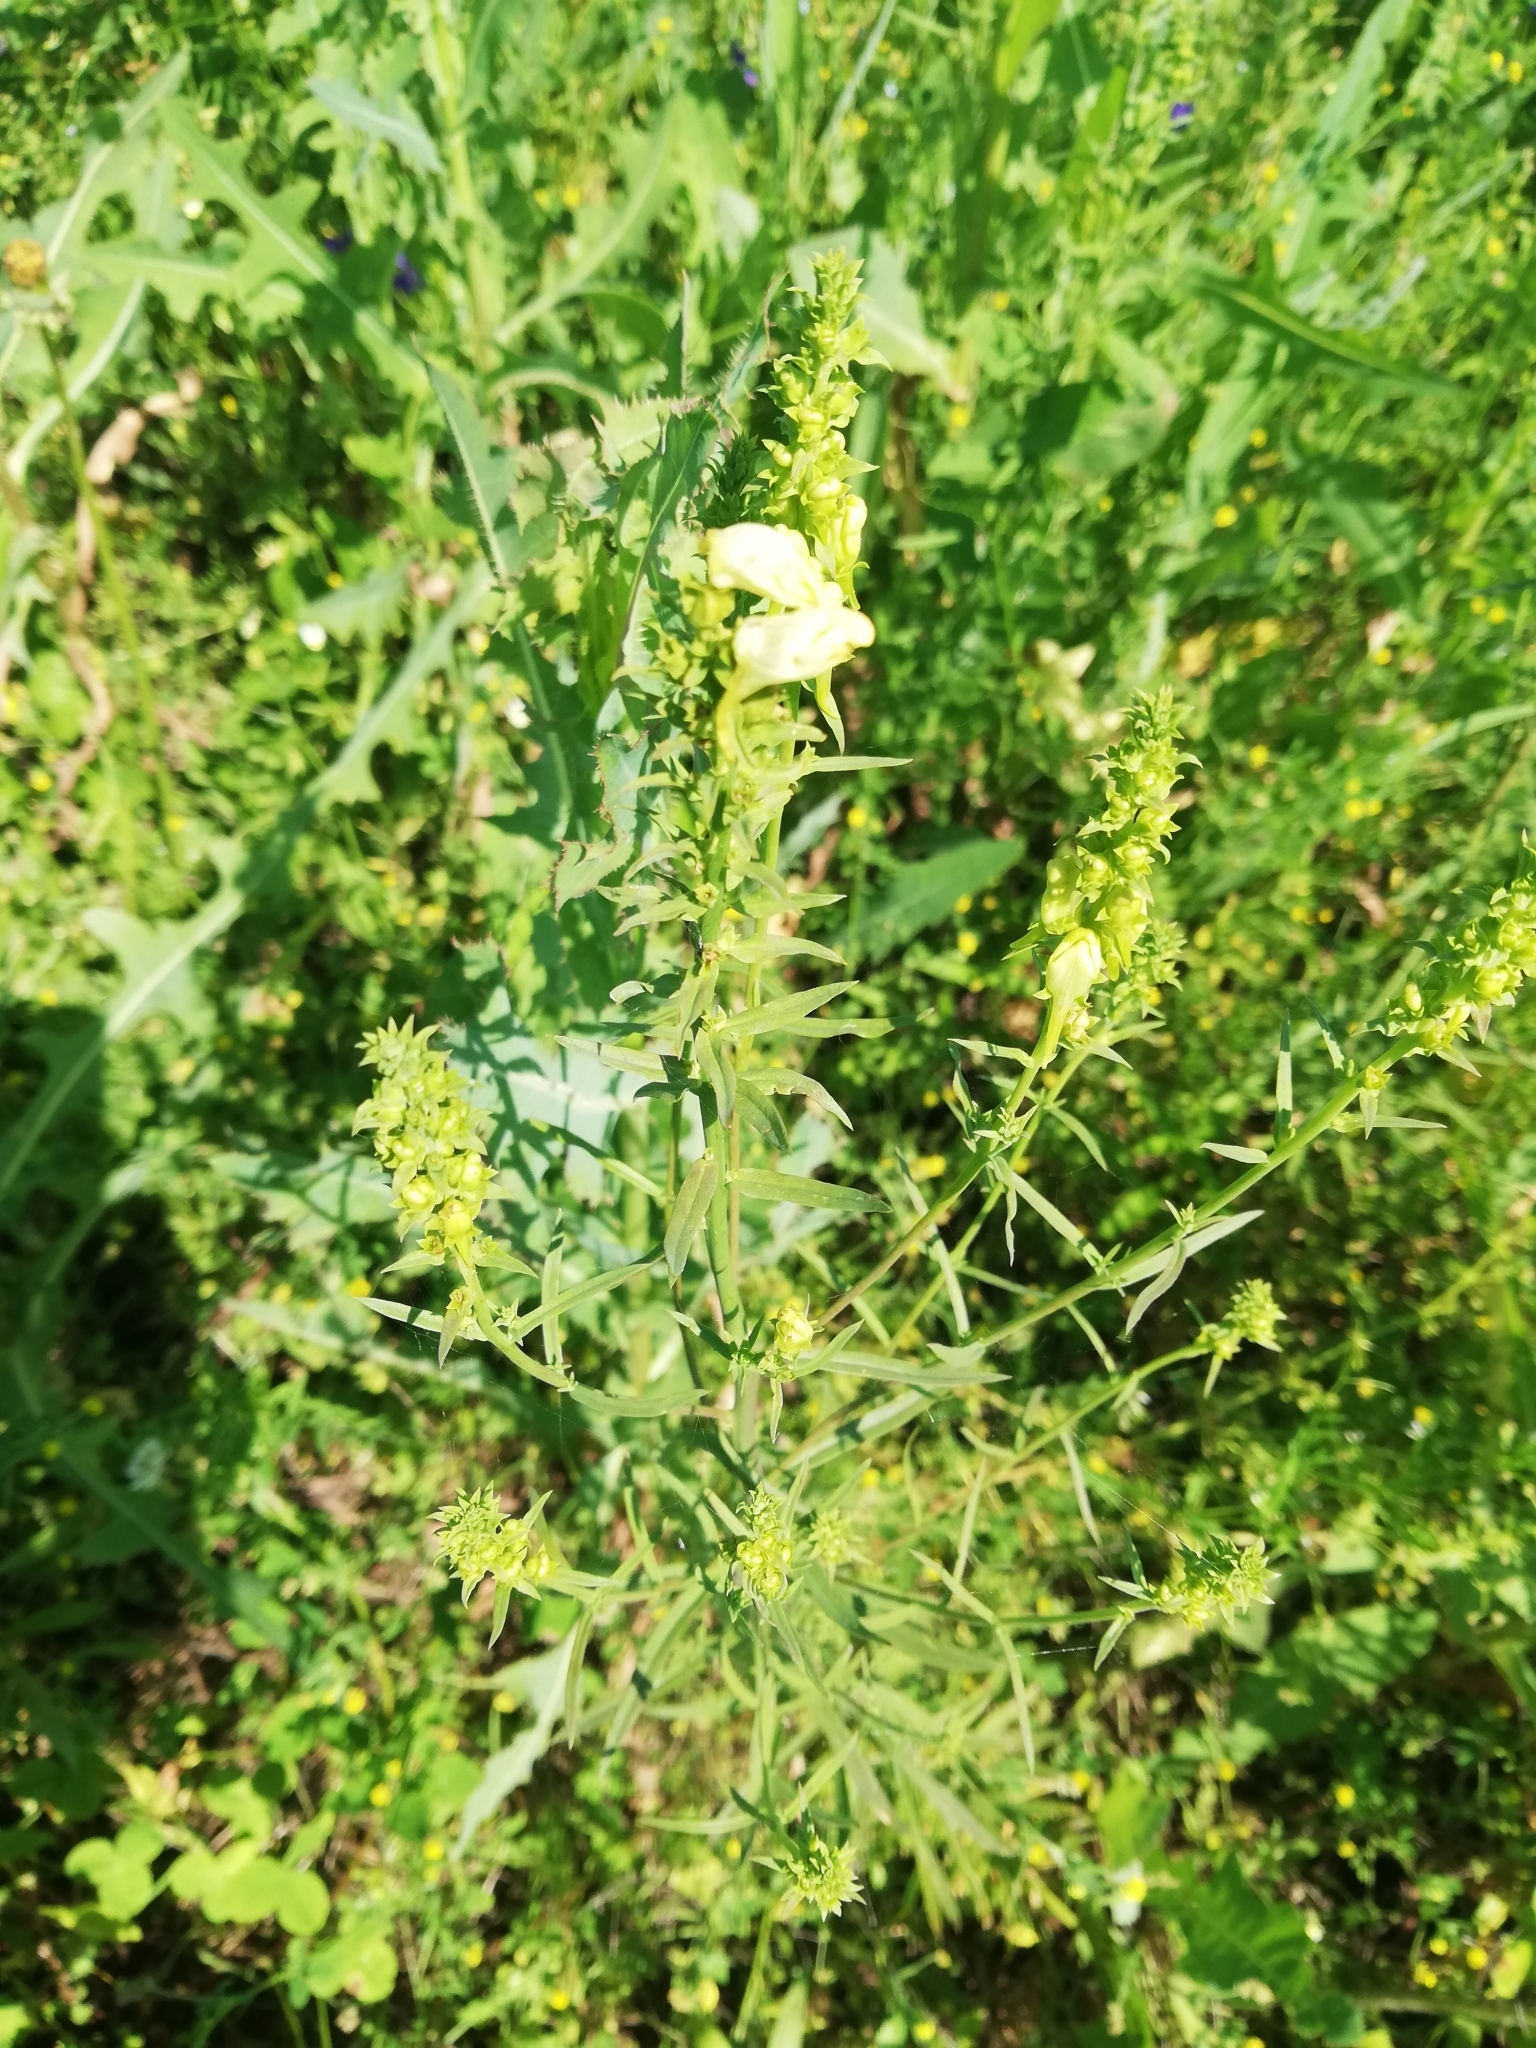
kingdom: Plantae
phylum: Tracheophyta
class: Magnoliopsida
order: Lamiales
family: Plantaginaceae
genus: Linaria
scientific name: Linaria vulgaris
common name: Butter and eggs
